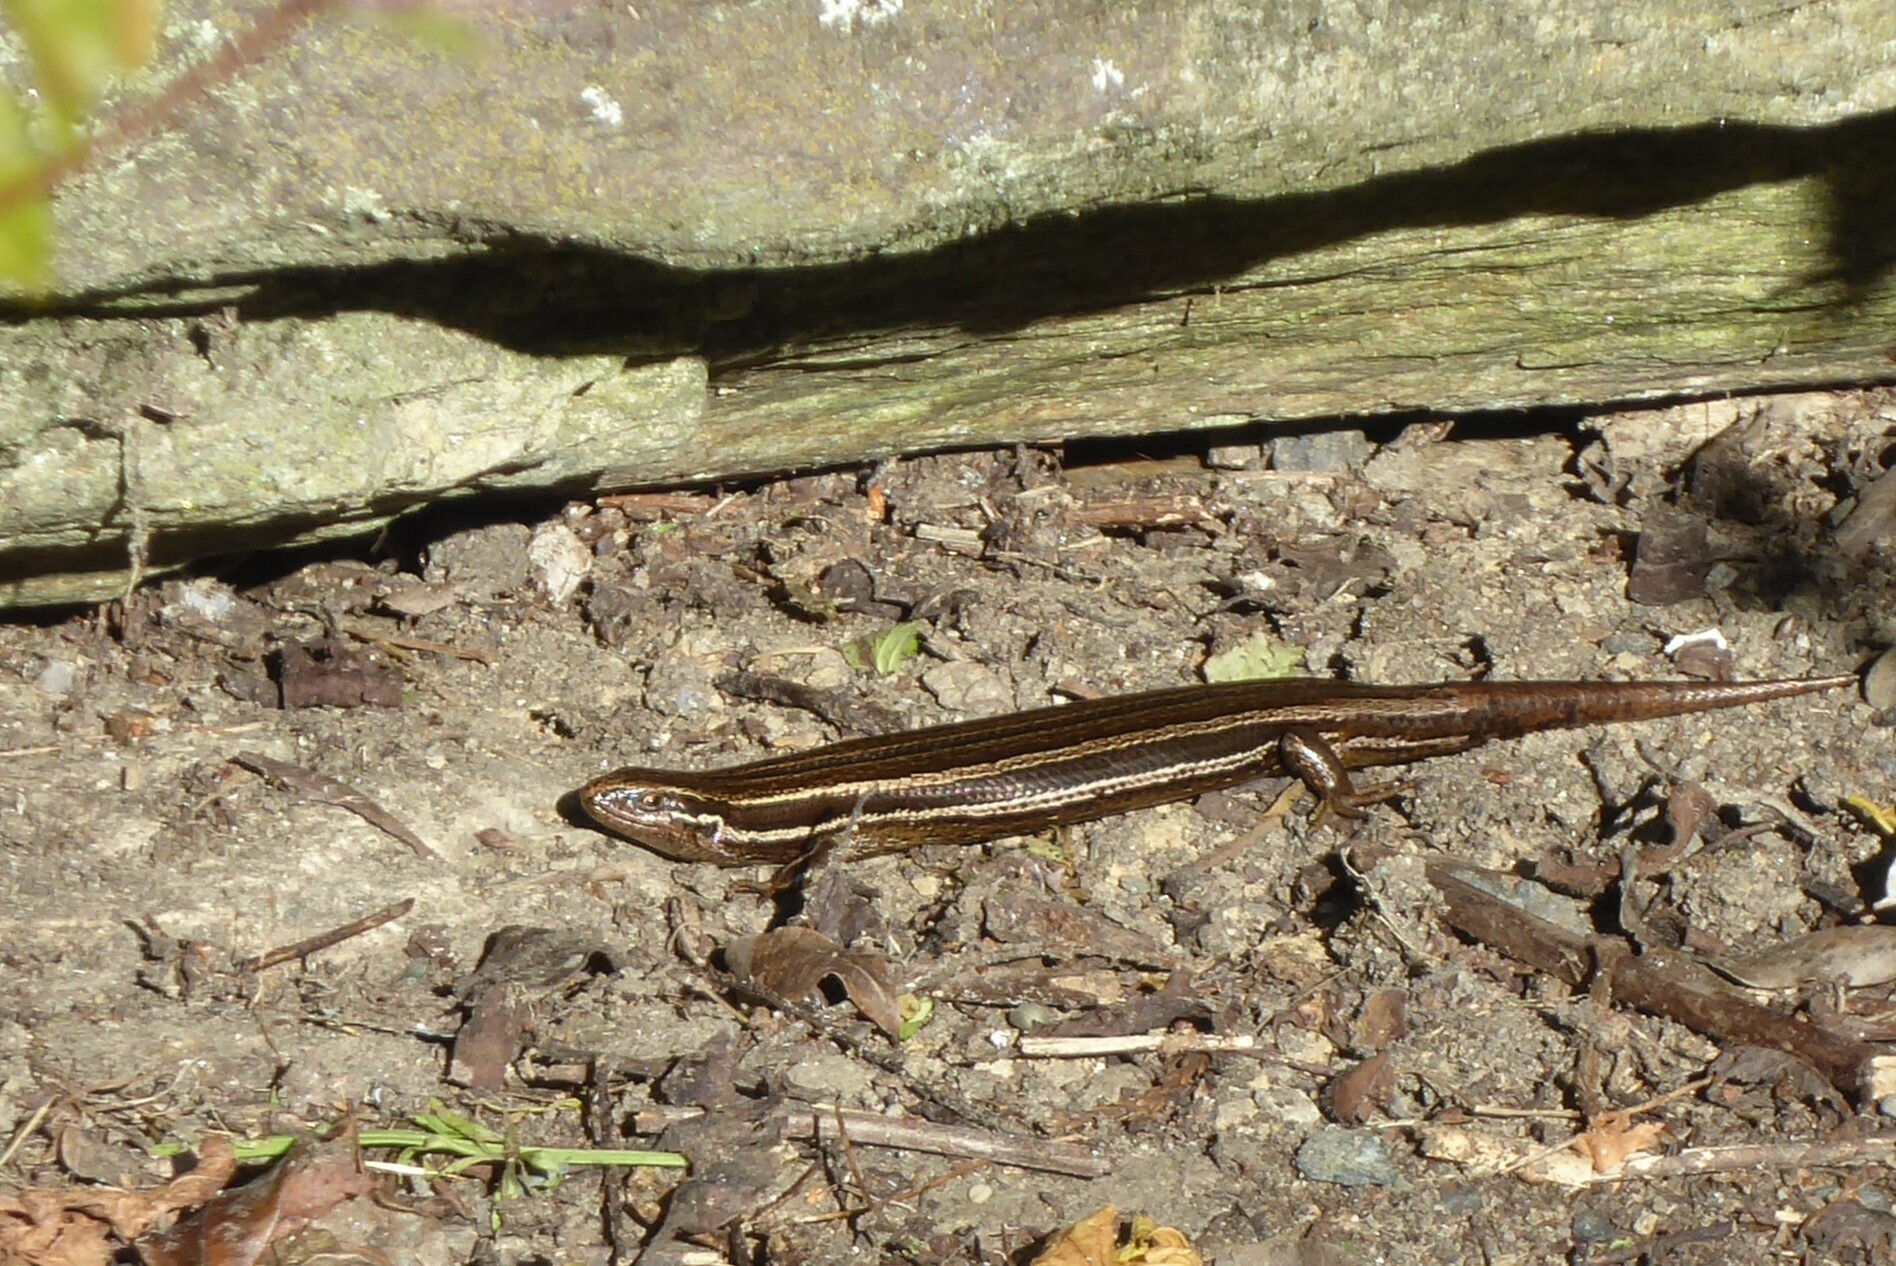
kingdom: Animalia
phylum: Chordata
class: Squamata
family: Scincidae
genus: Oligosoma
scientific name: Oligosoma polychroma
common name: Common new zealand skink
